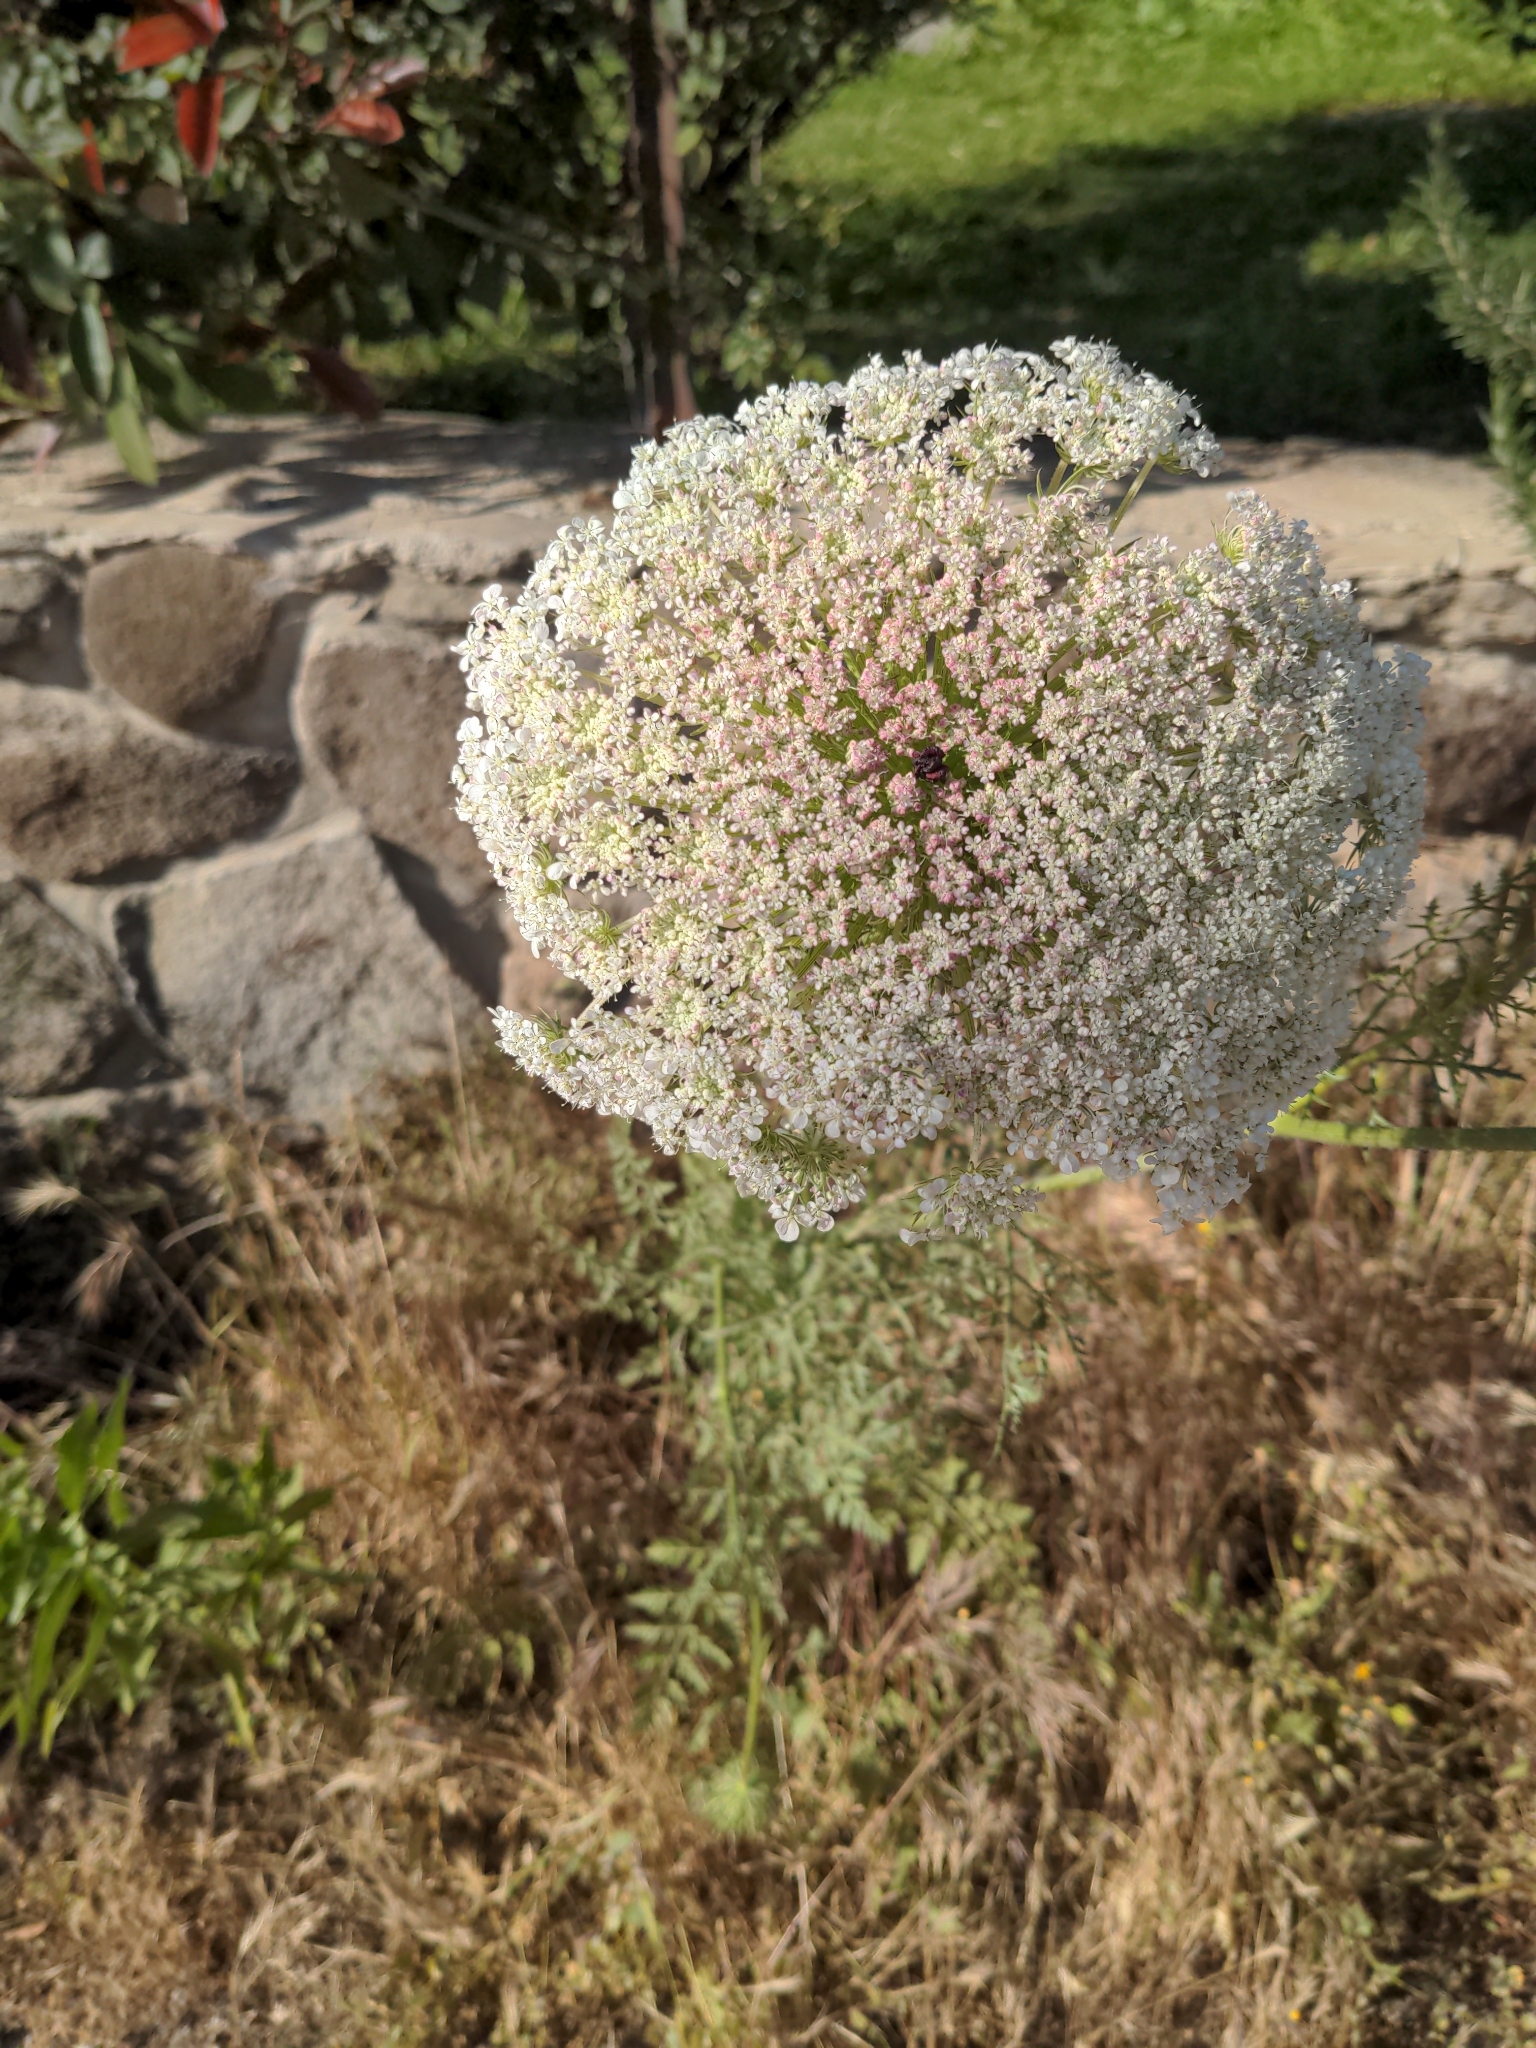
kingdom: Plantae
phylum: Tracheophyta
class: Magnoliopsida
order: Apiales
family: Apiaceae
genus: Daucus
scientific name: Daucus carota
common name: Wild carrot
